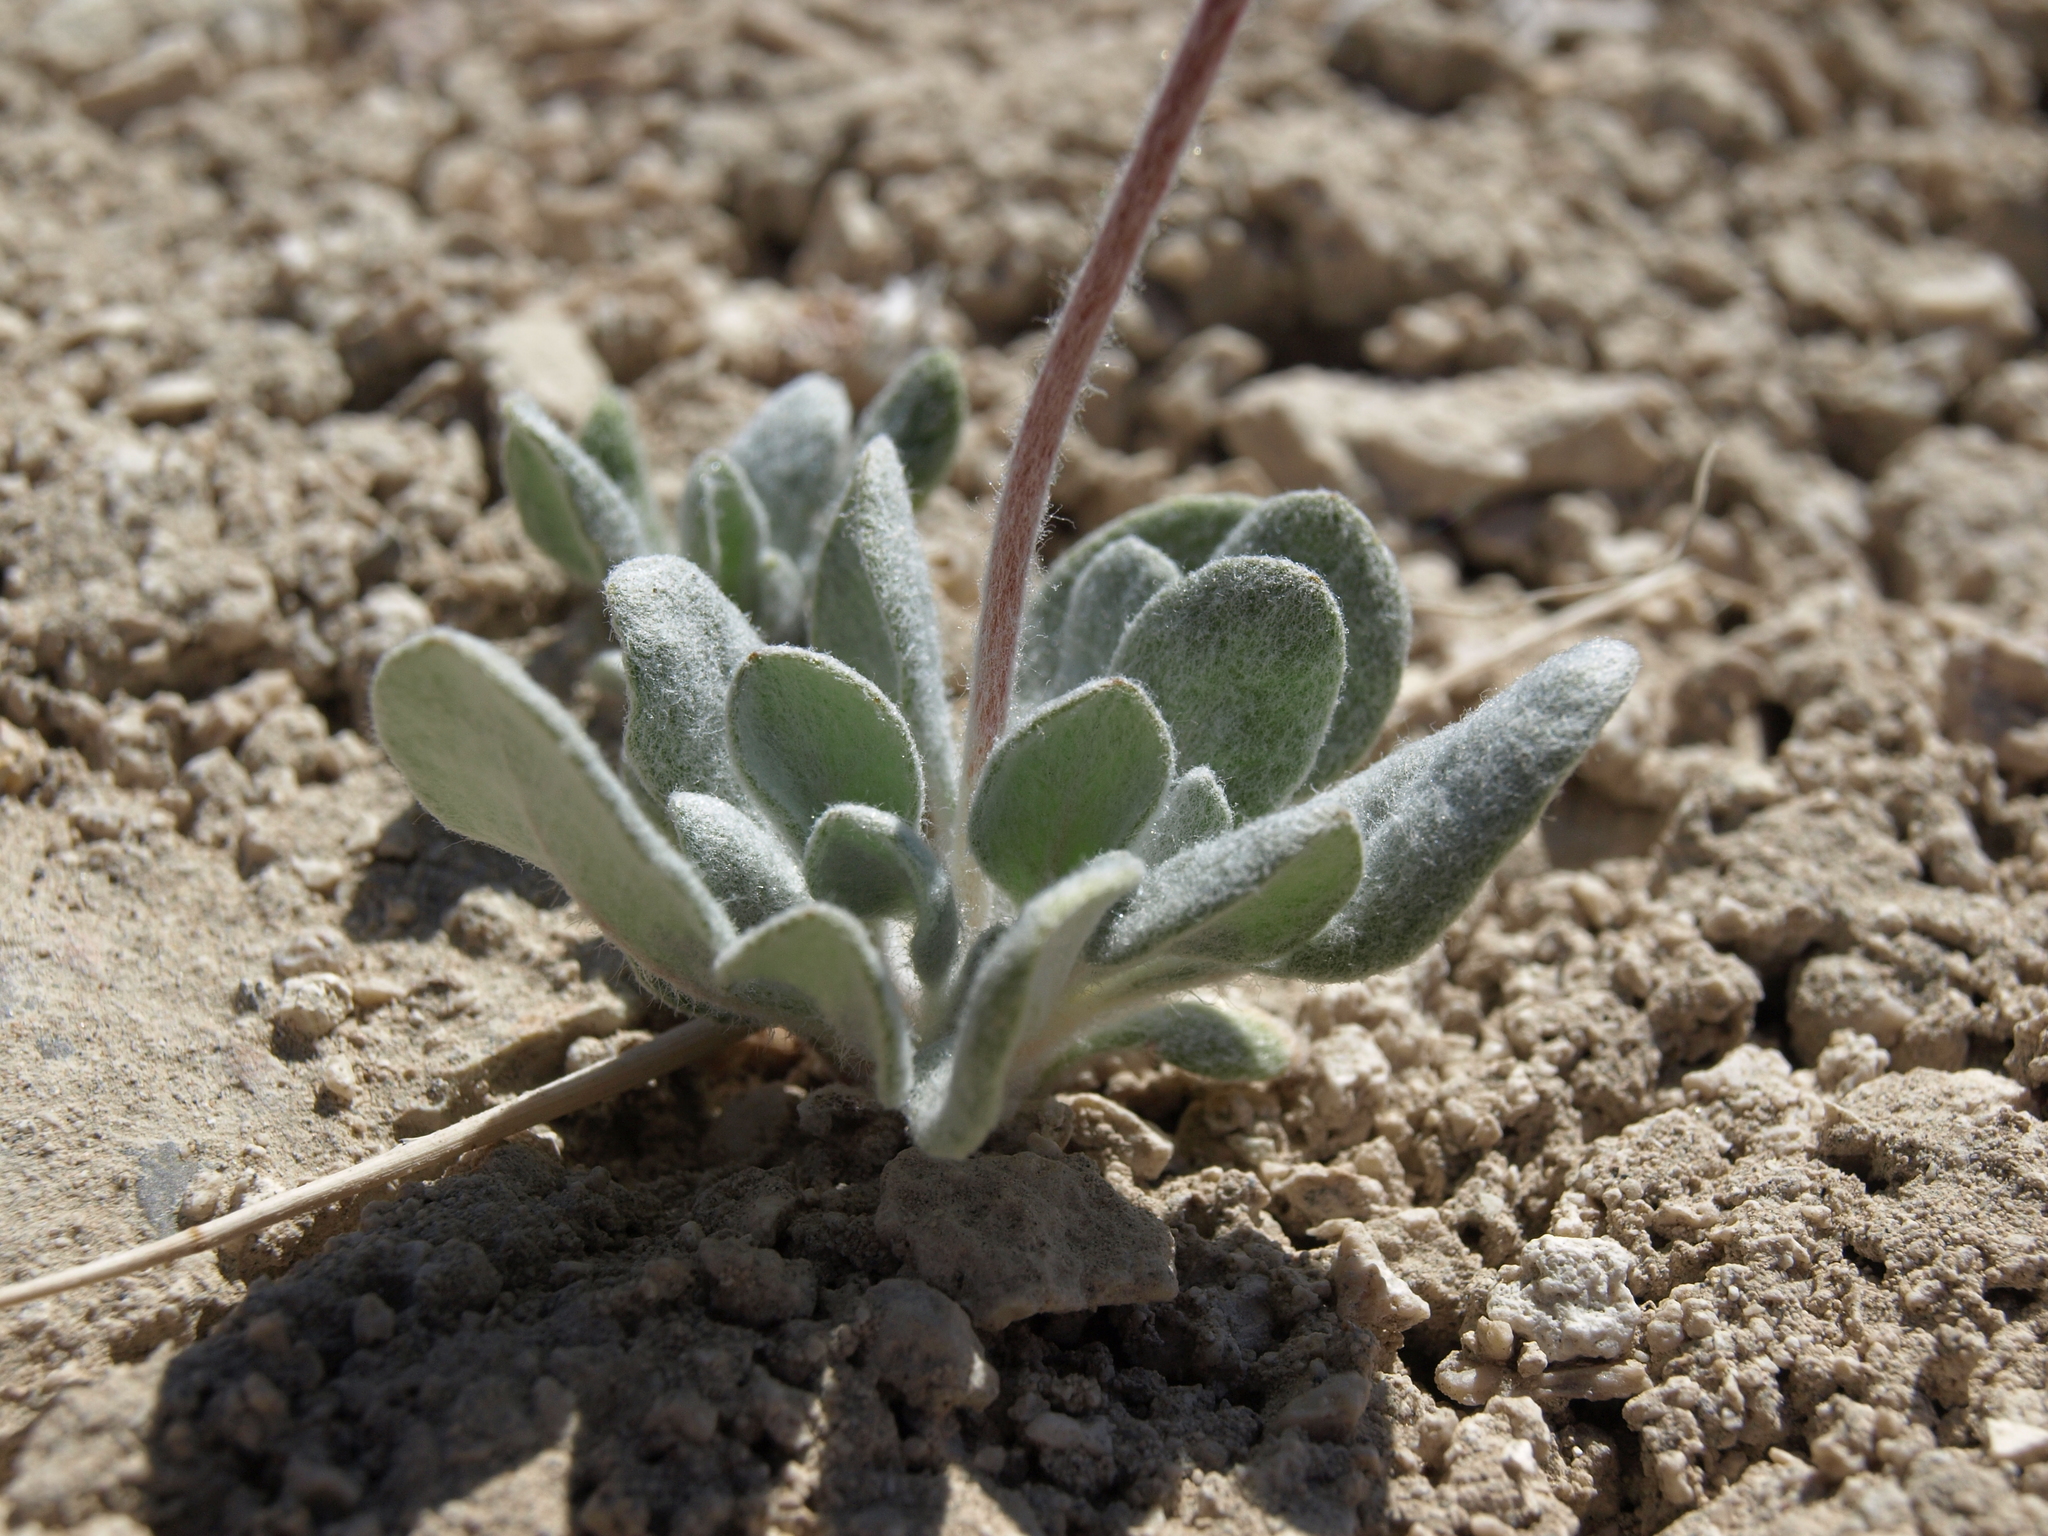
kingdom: Plantae
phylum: Tracheophyta
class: Magnoliopsida
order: Caryophyllales
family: Polygonaceae
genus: Eriogonum
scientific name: Eriogonum tiehmii
